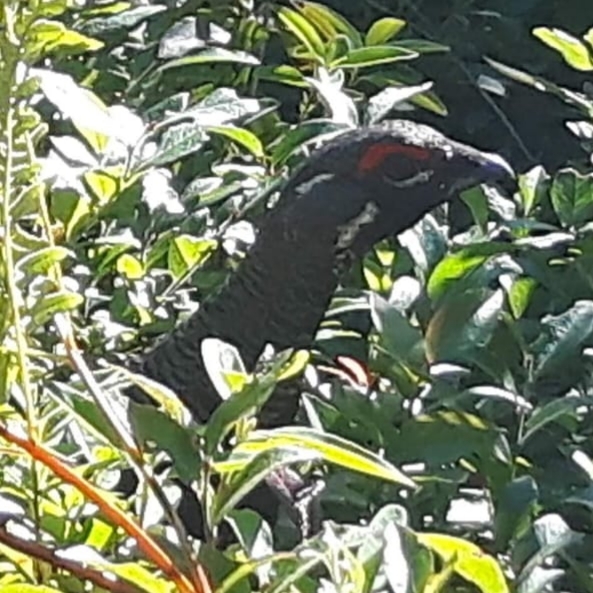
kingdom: Animalia
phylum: Chordata
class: Aves
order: Galliformes
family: Phasianidae
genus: Canachites
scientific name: Canachites canadensis
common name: Spruce grouse
